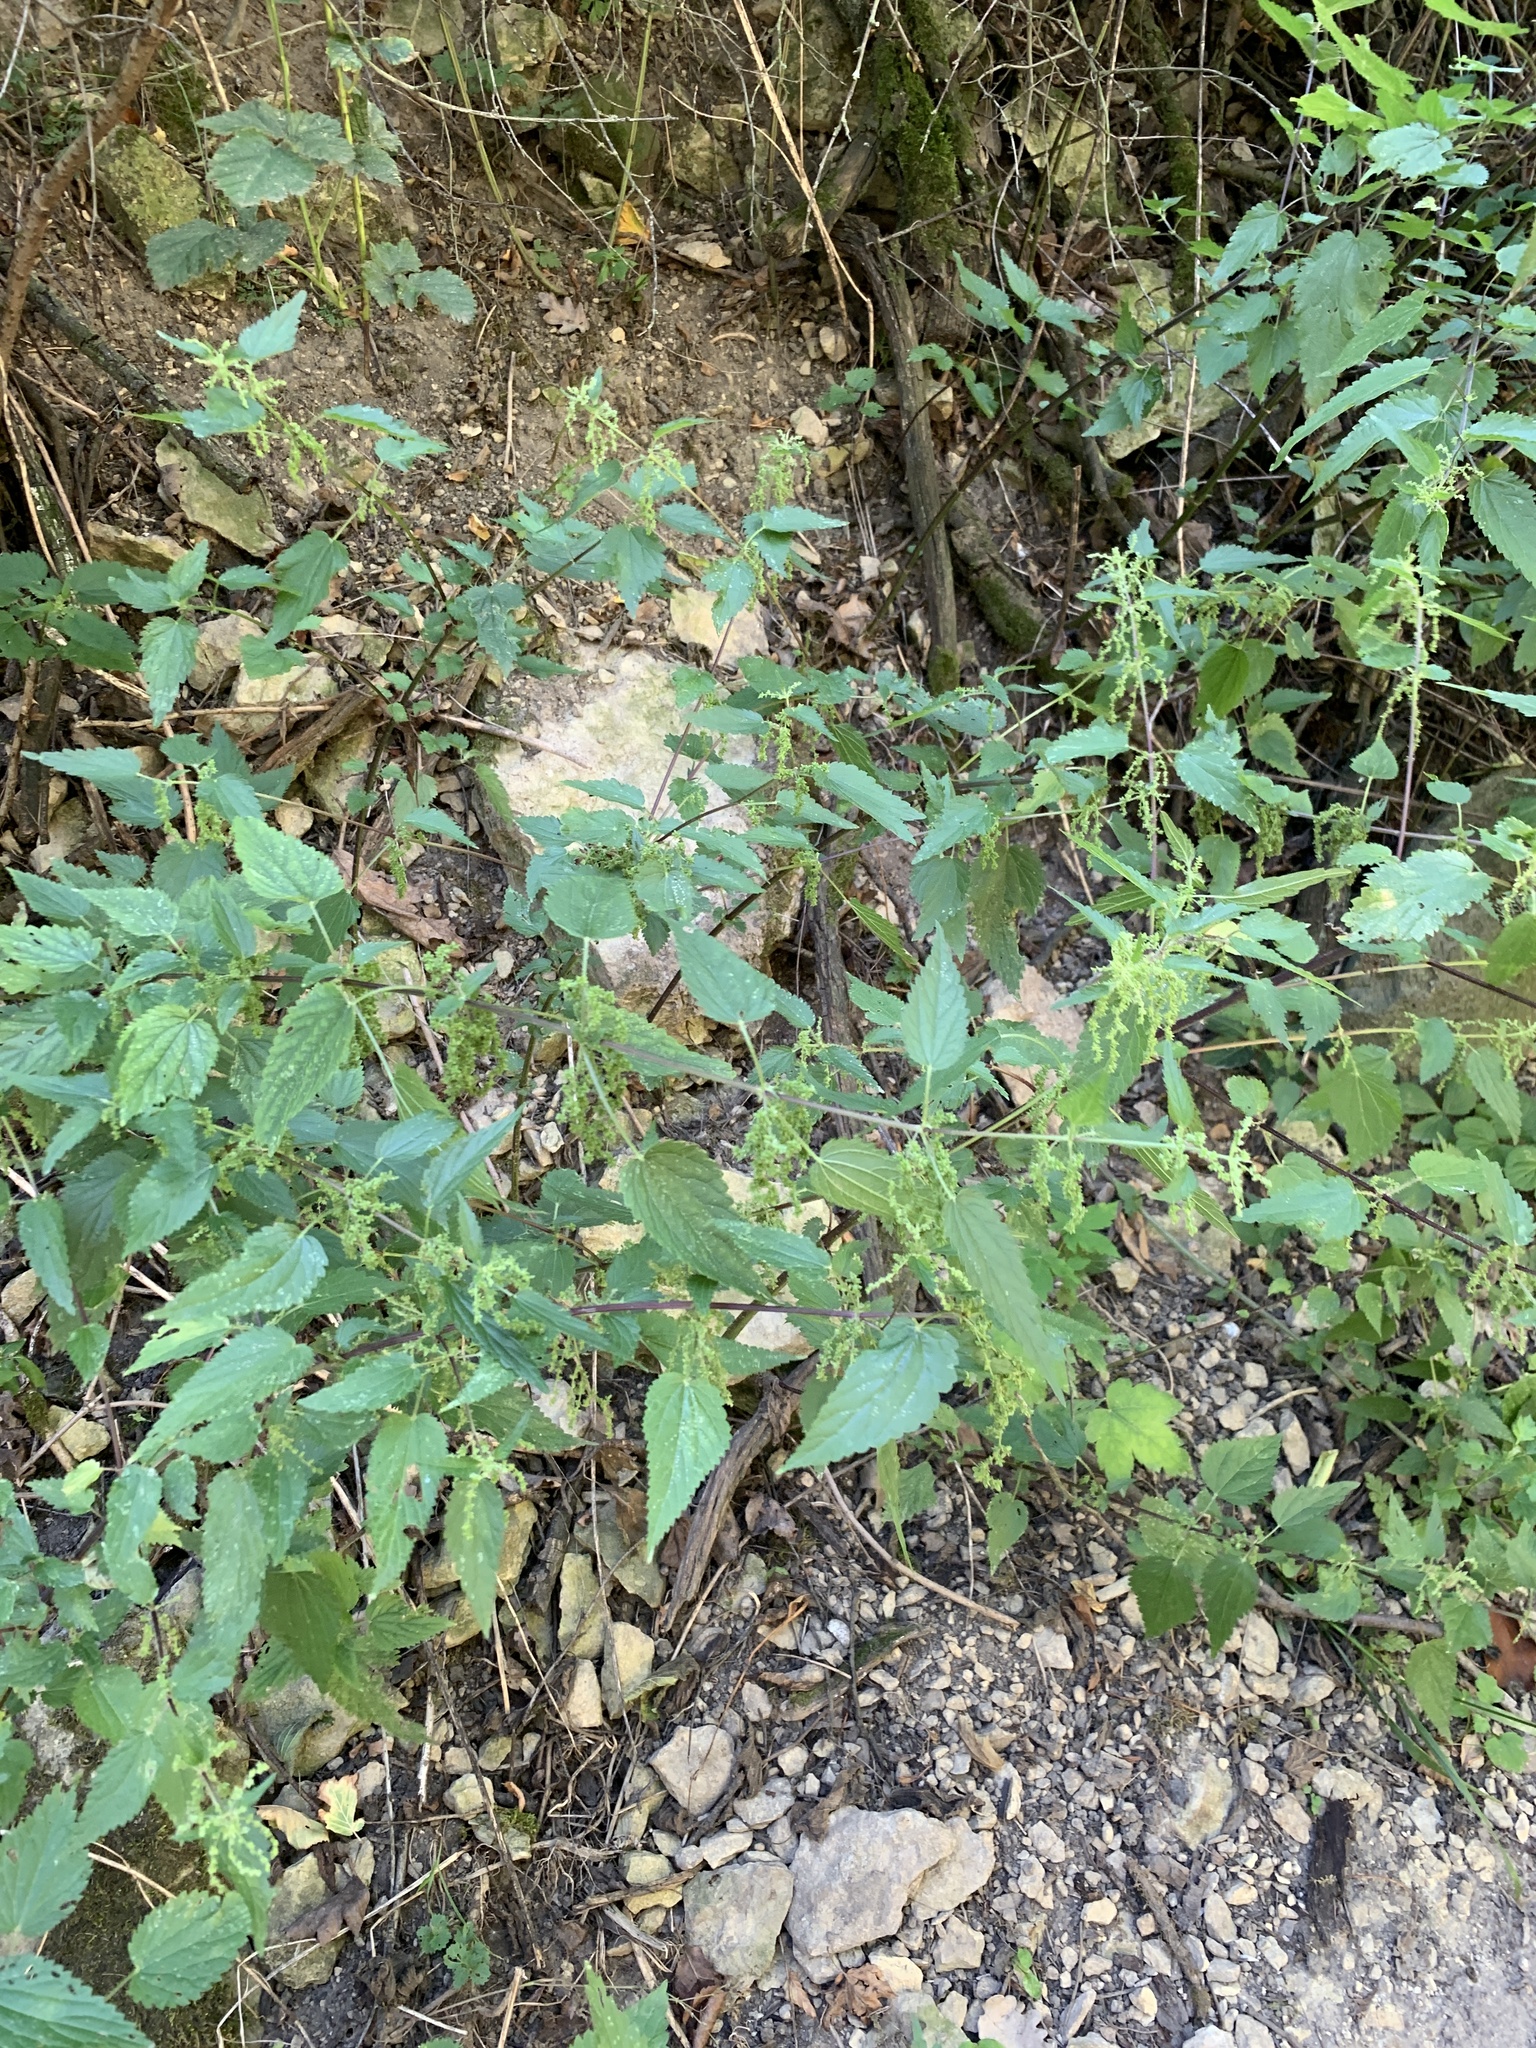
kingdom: Plantae
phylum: Tracheophyta
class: Magnoliopsida
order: Rosales
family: Urticaceae
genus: Urtica
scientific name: Urtica dioica
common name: Common nettle
